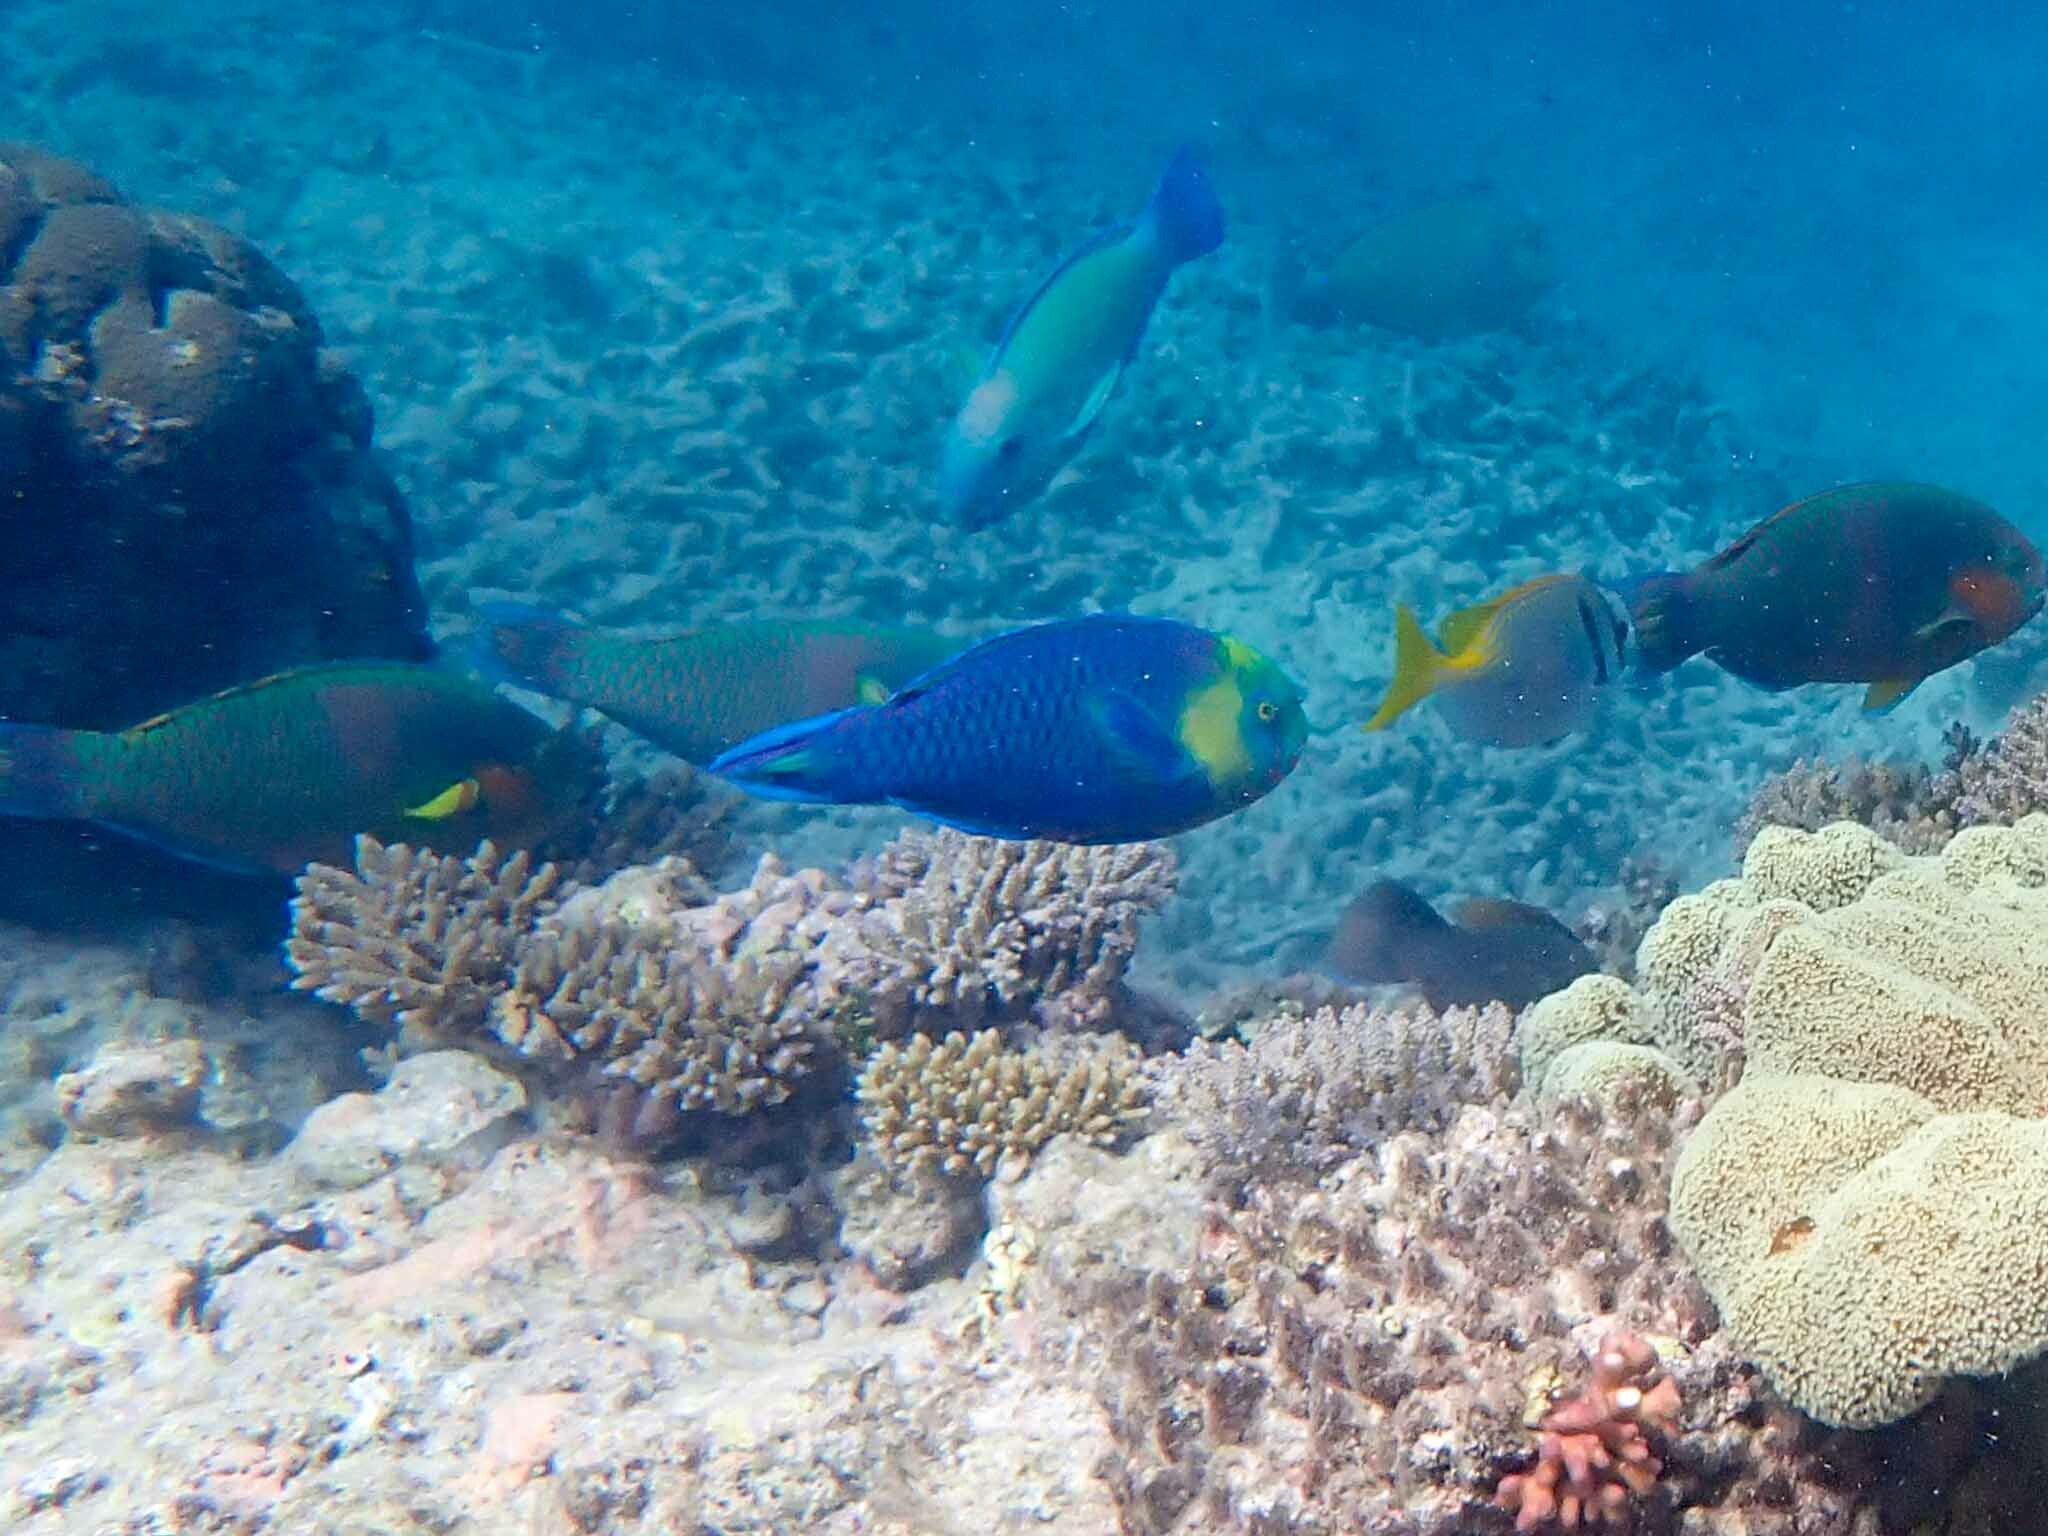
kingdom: Animalia
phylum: Chordata
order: Perciformes
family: Scaridae
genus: Scarus
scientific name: Scarus spinus
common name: Greensnout parrotfish
